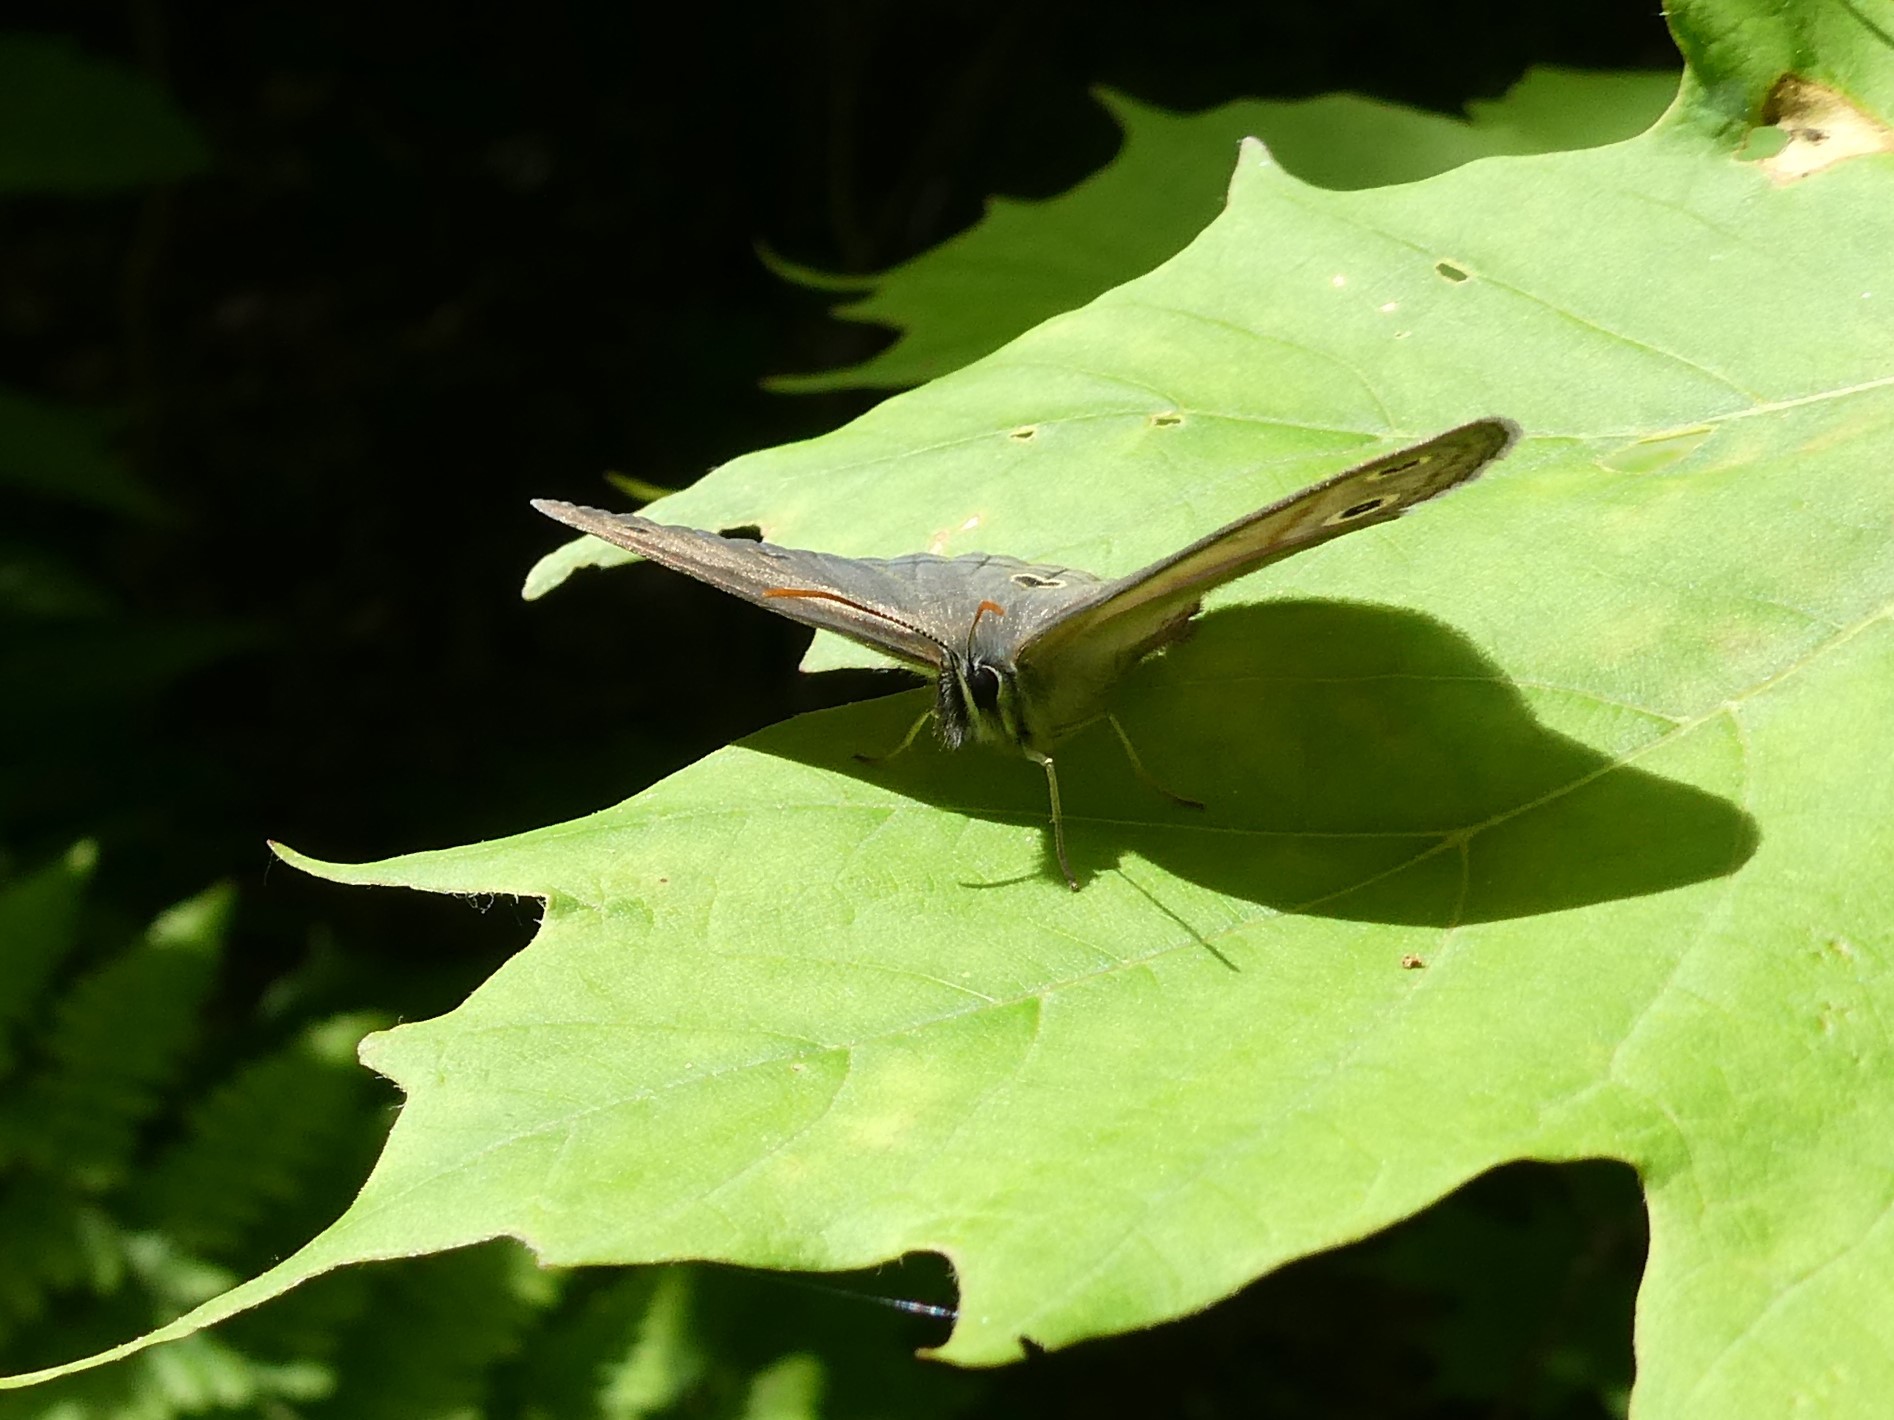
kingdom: Animalia
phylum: Arthropoda
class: Insecta
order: Lepidoptera
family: Nymphalidae
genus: Euptychia
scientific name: Euptychia cymela
